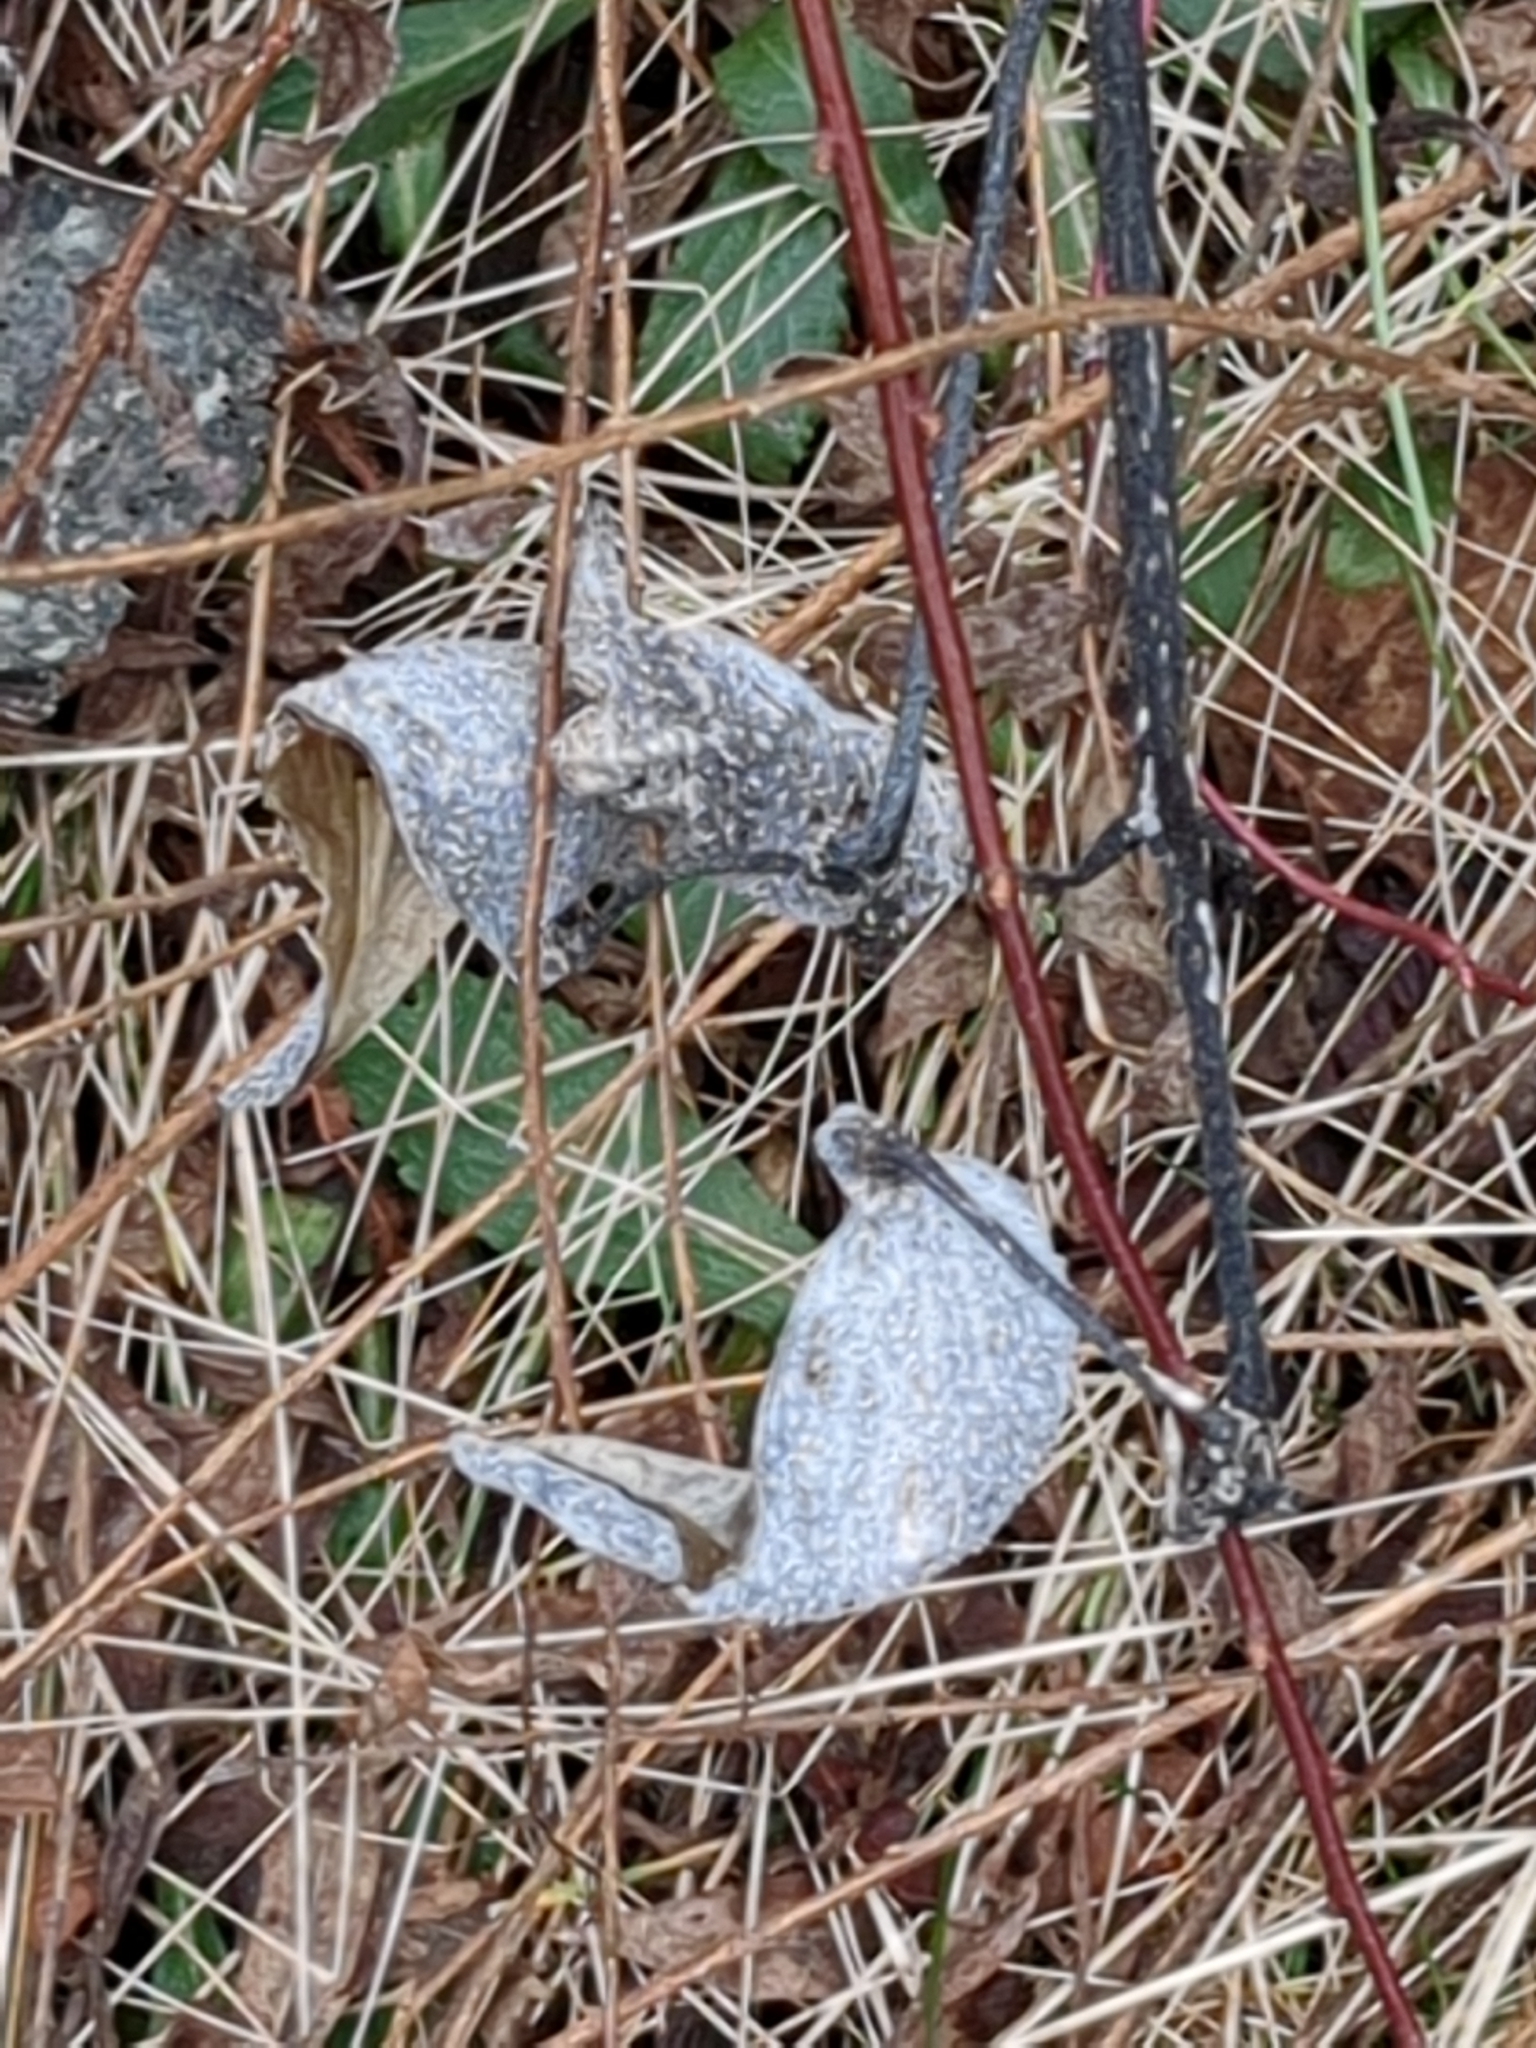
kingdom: Plantae
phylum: Tracheophyta
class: Magnoliopsida
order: Gentianales
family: Apocynaceae
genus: Asclepias
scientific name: Asclepias syriaca
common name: Common milkweed
